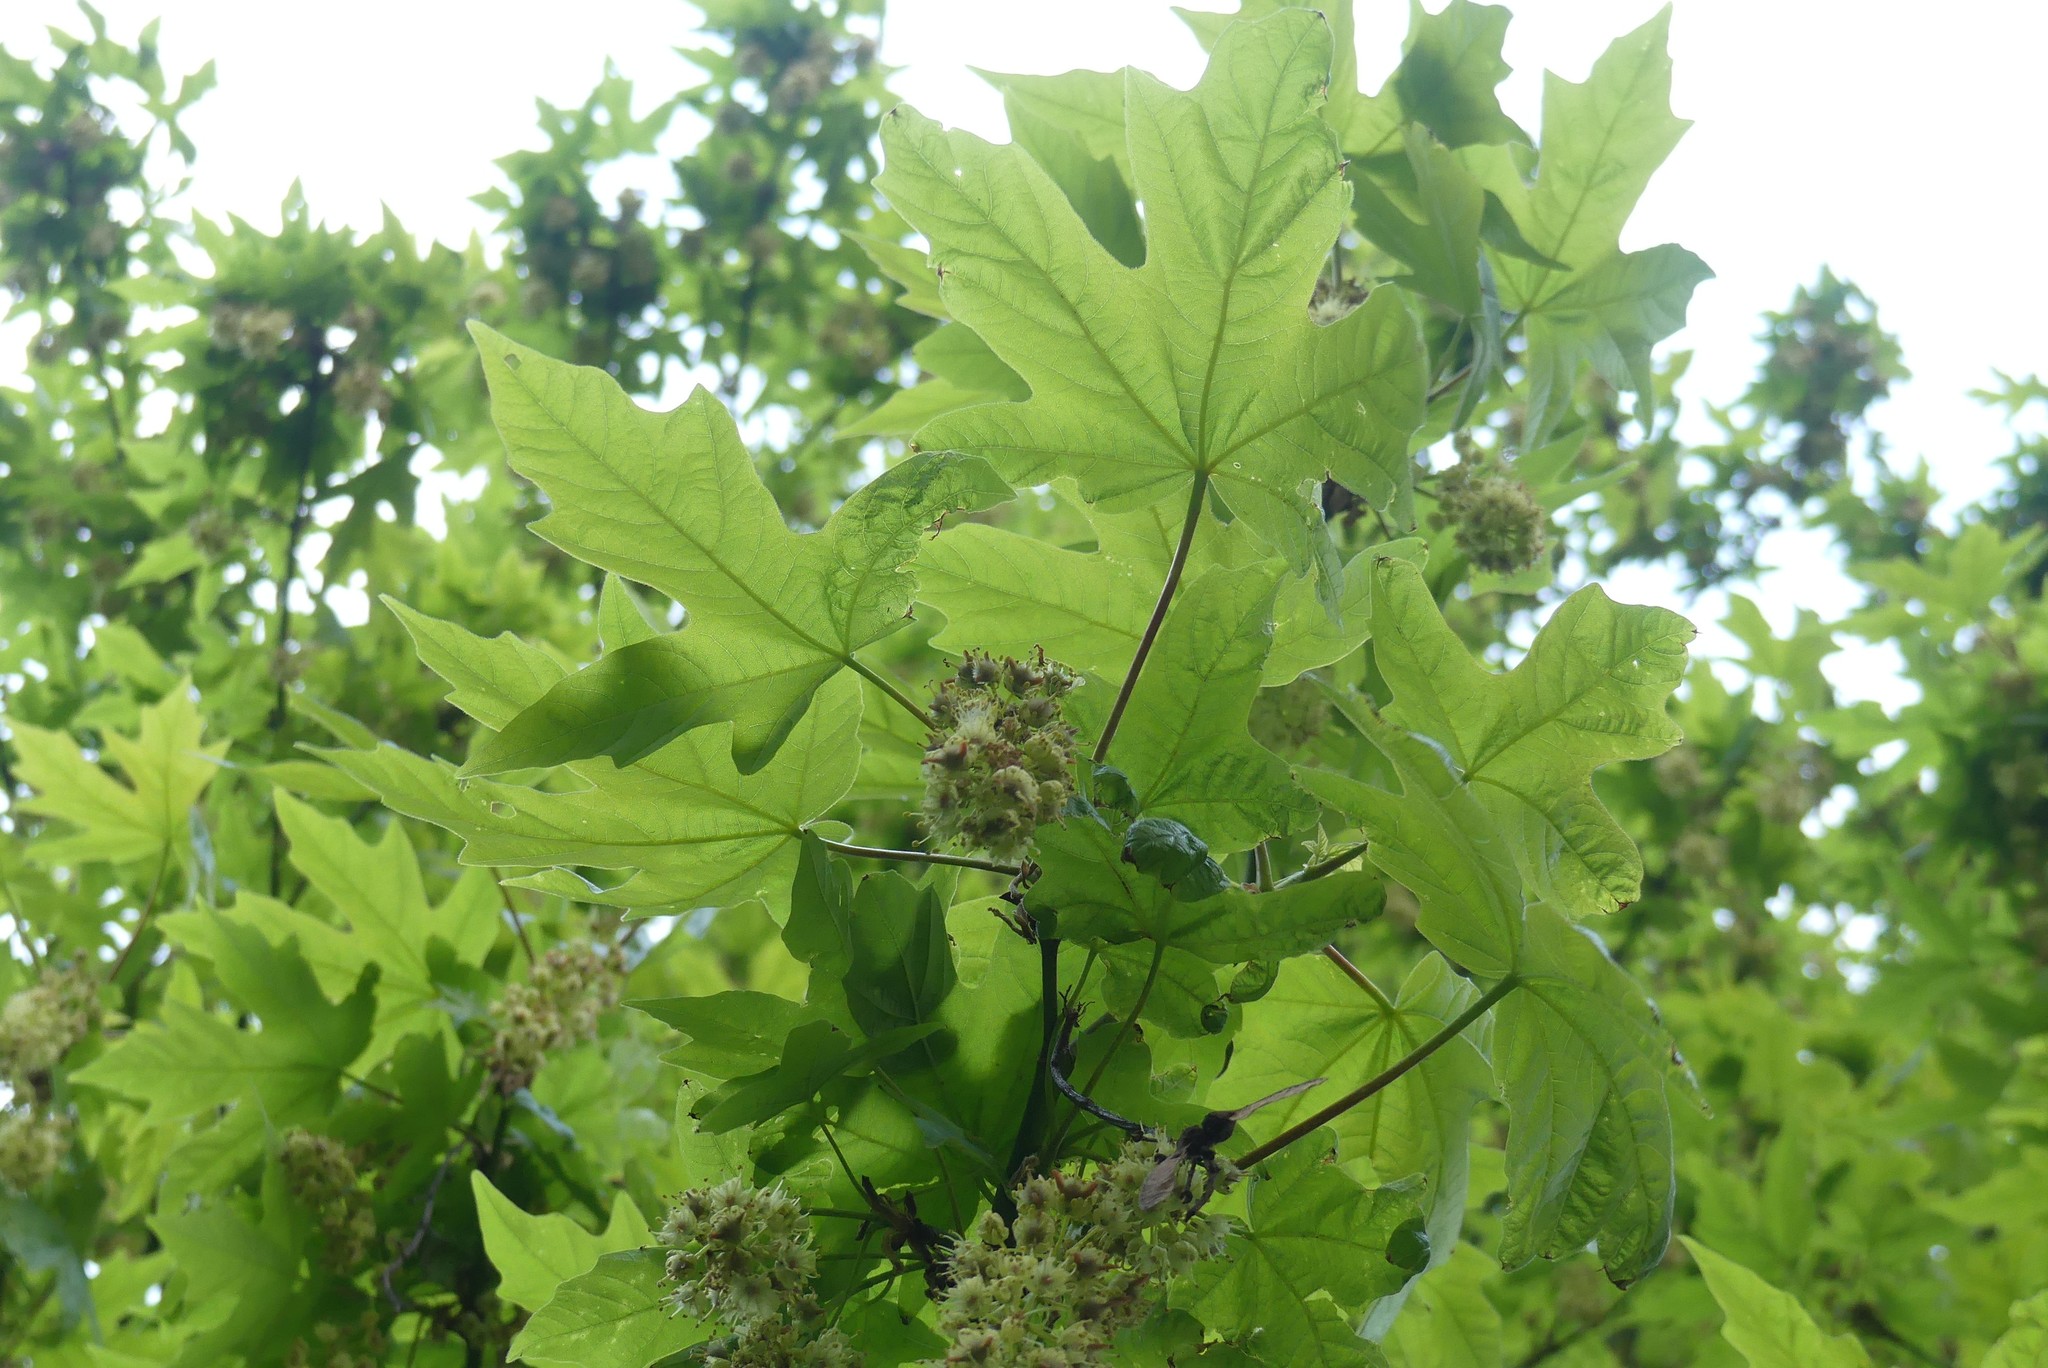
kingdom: Plantae
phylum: Tracheophyta
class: Magnoliopsida
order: Sapindales
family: Sapindaceae
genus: Acer
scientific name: Acer macrophyllum
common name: Oregon maple
